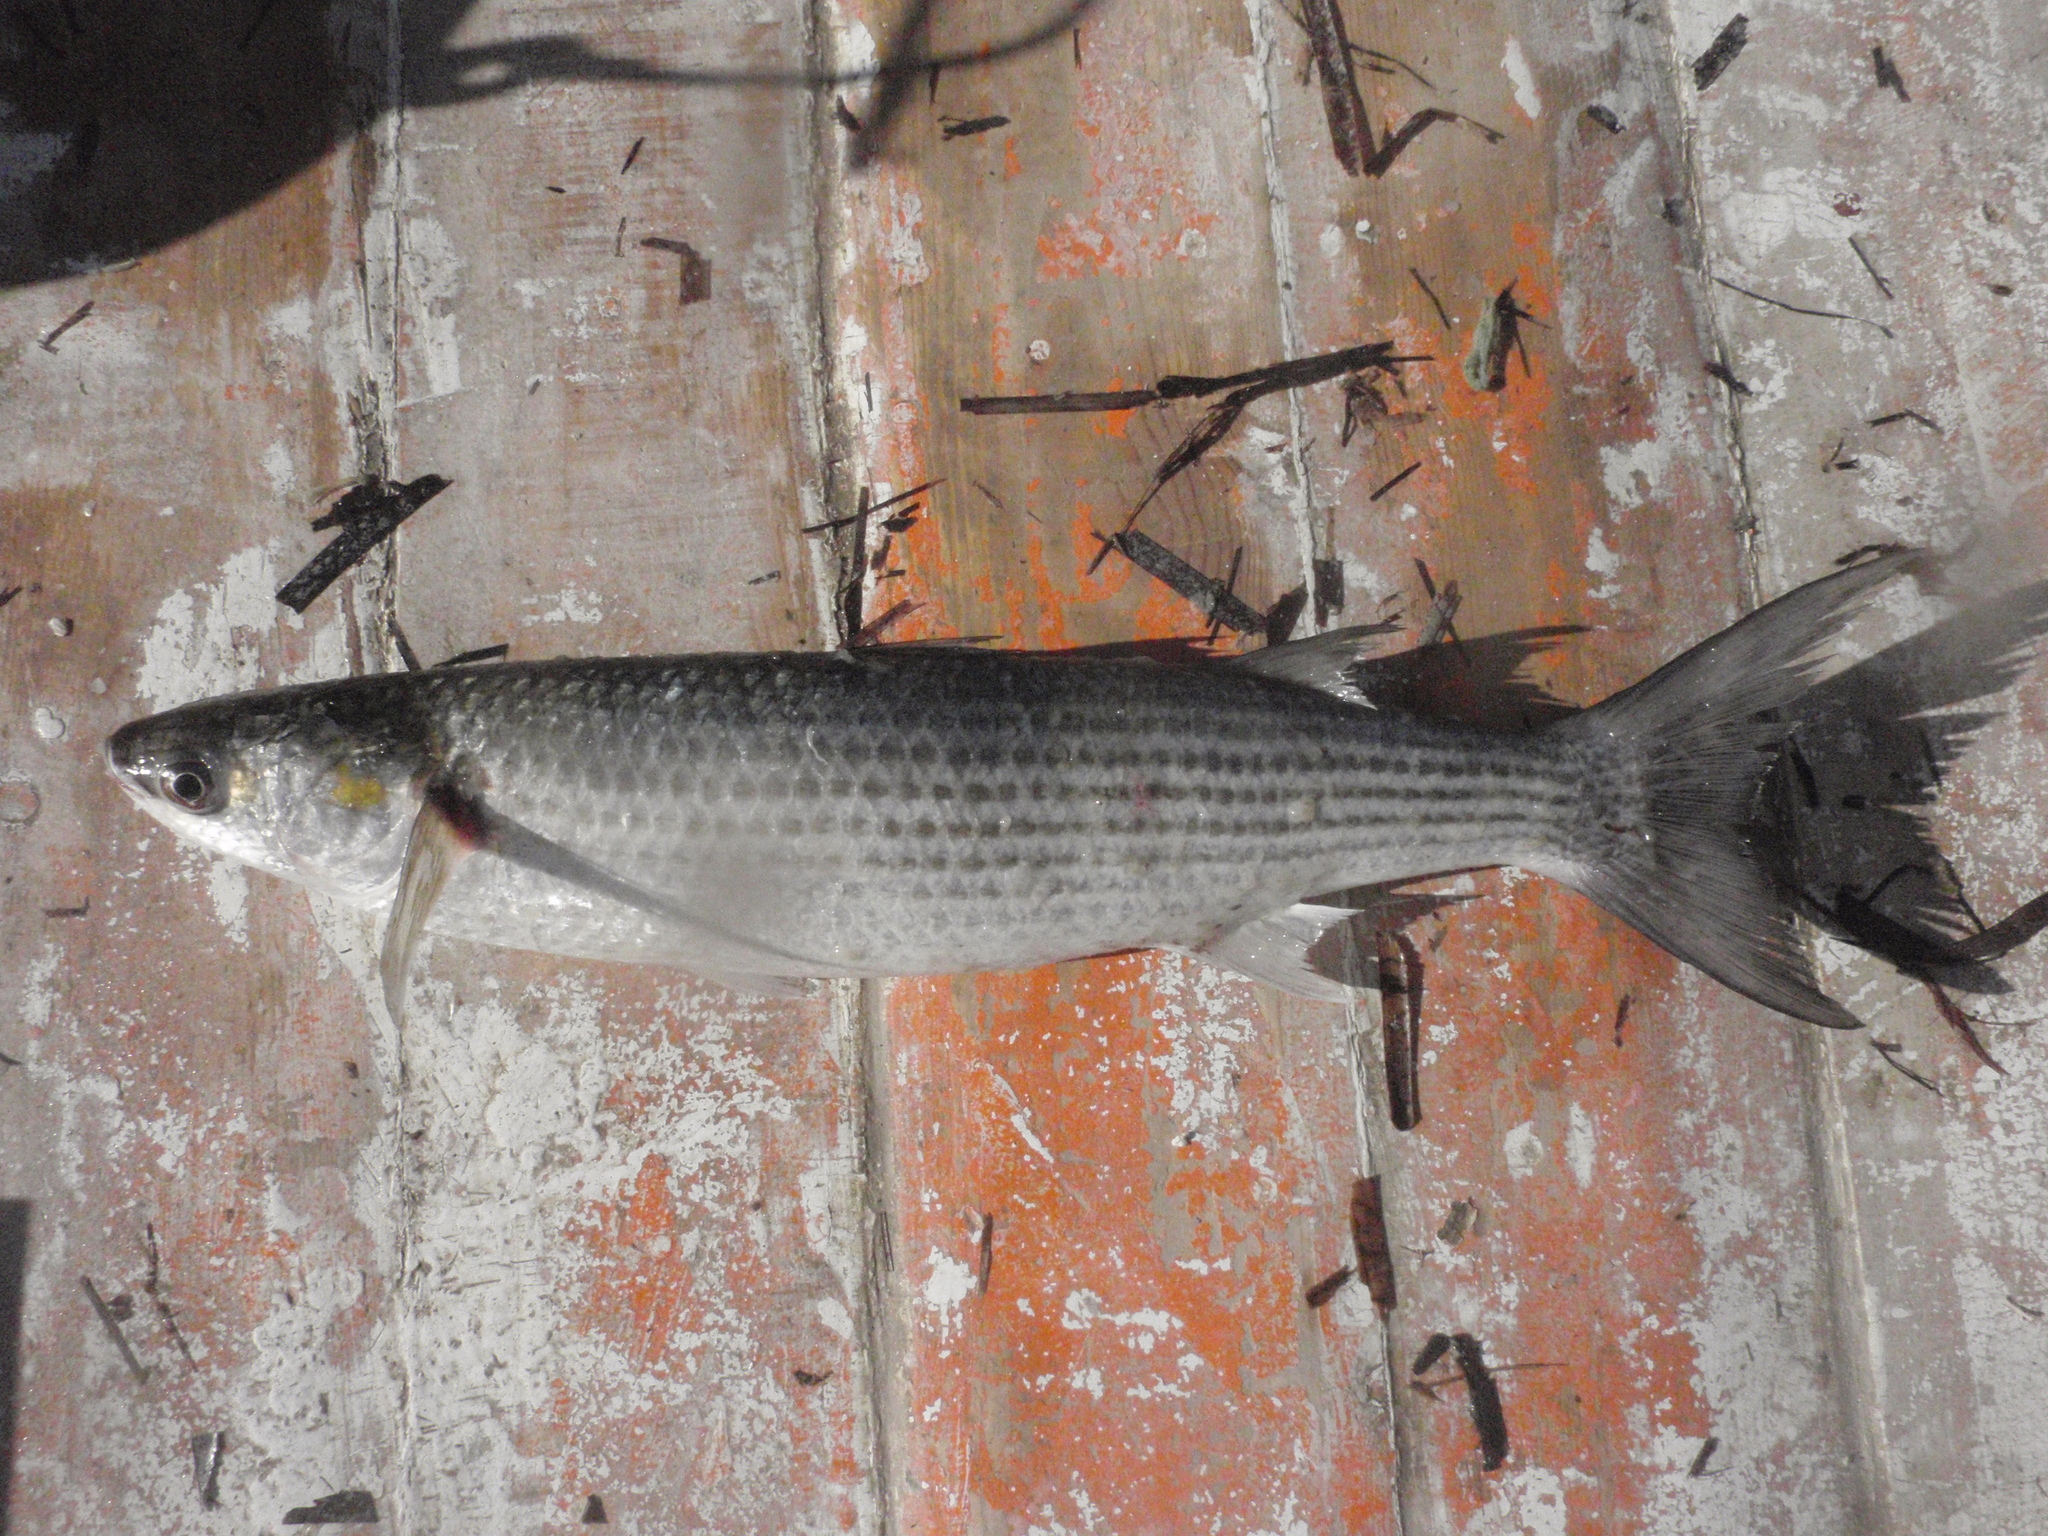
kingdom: Animalia
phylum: Chordata
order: Mugiliformes
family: Mugilidae
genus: Chelon
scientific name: Chelon
